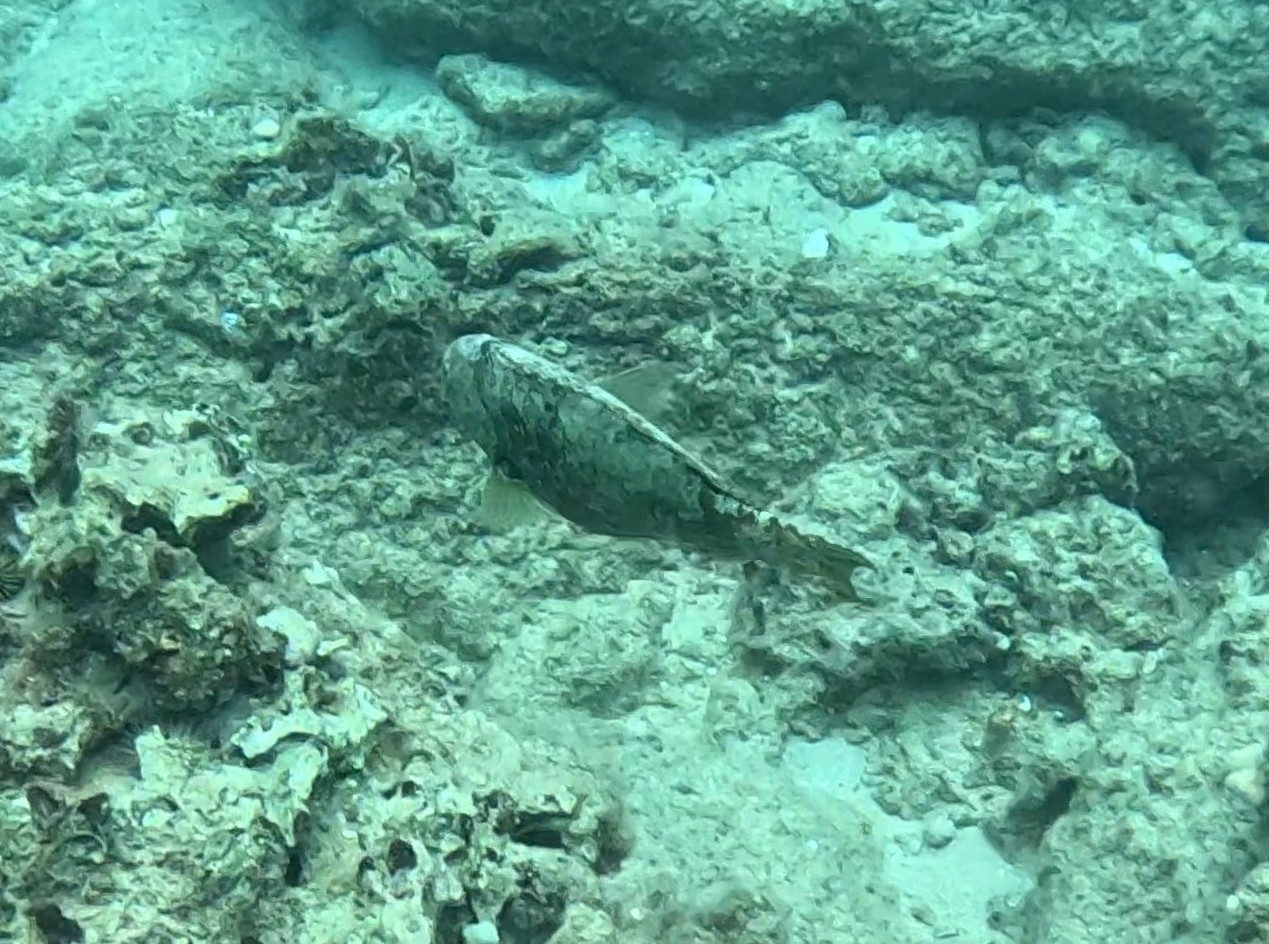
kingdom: Animalia
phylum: Chordata
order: Perciformes
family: Scaridae
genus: Calotomus
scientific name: Calotomus carolinus
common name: Bucktooth
